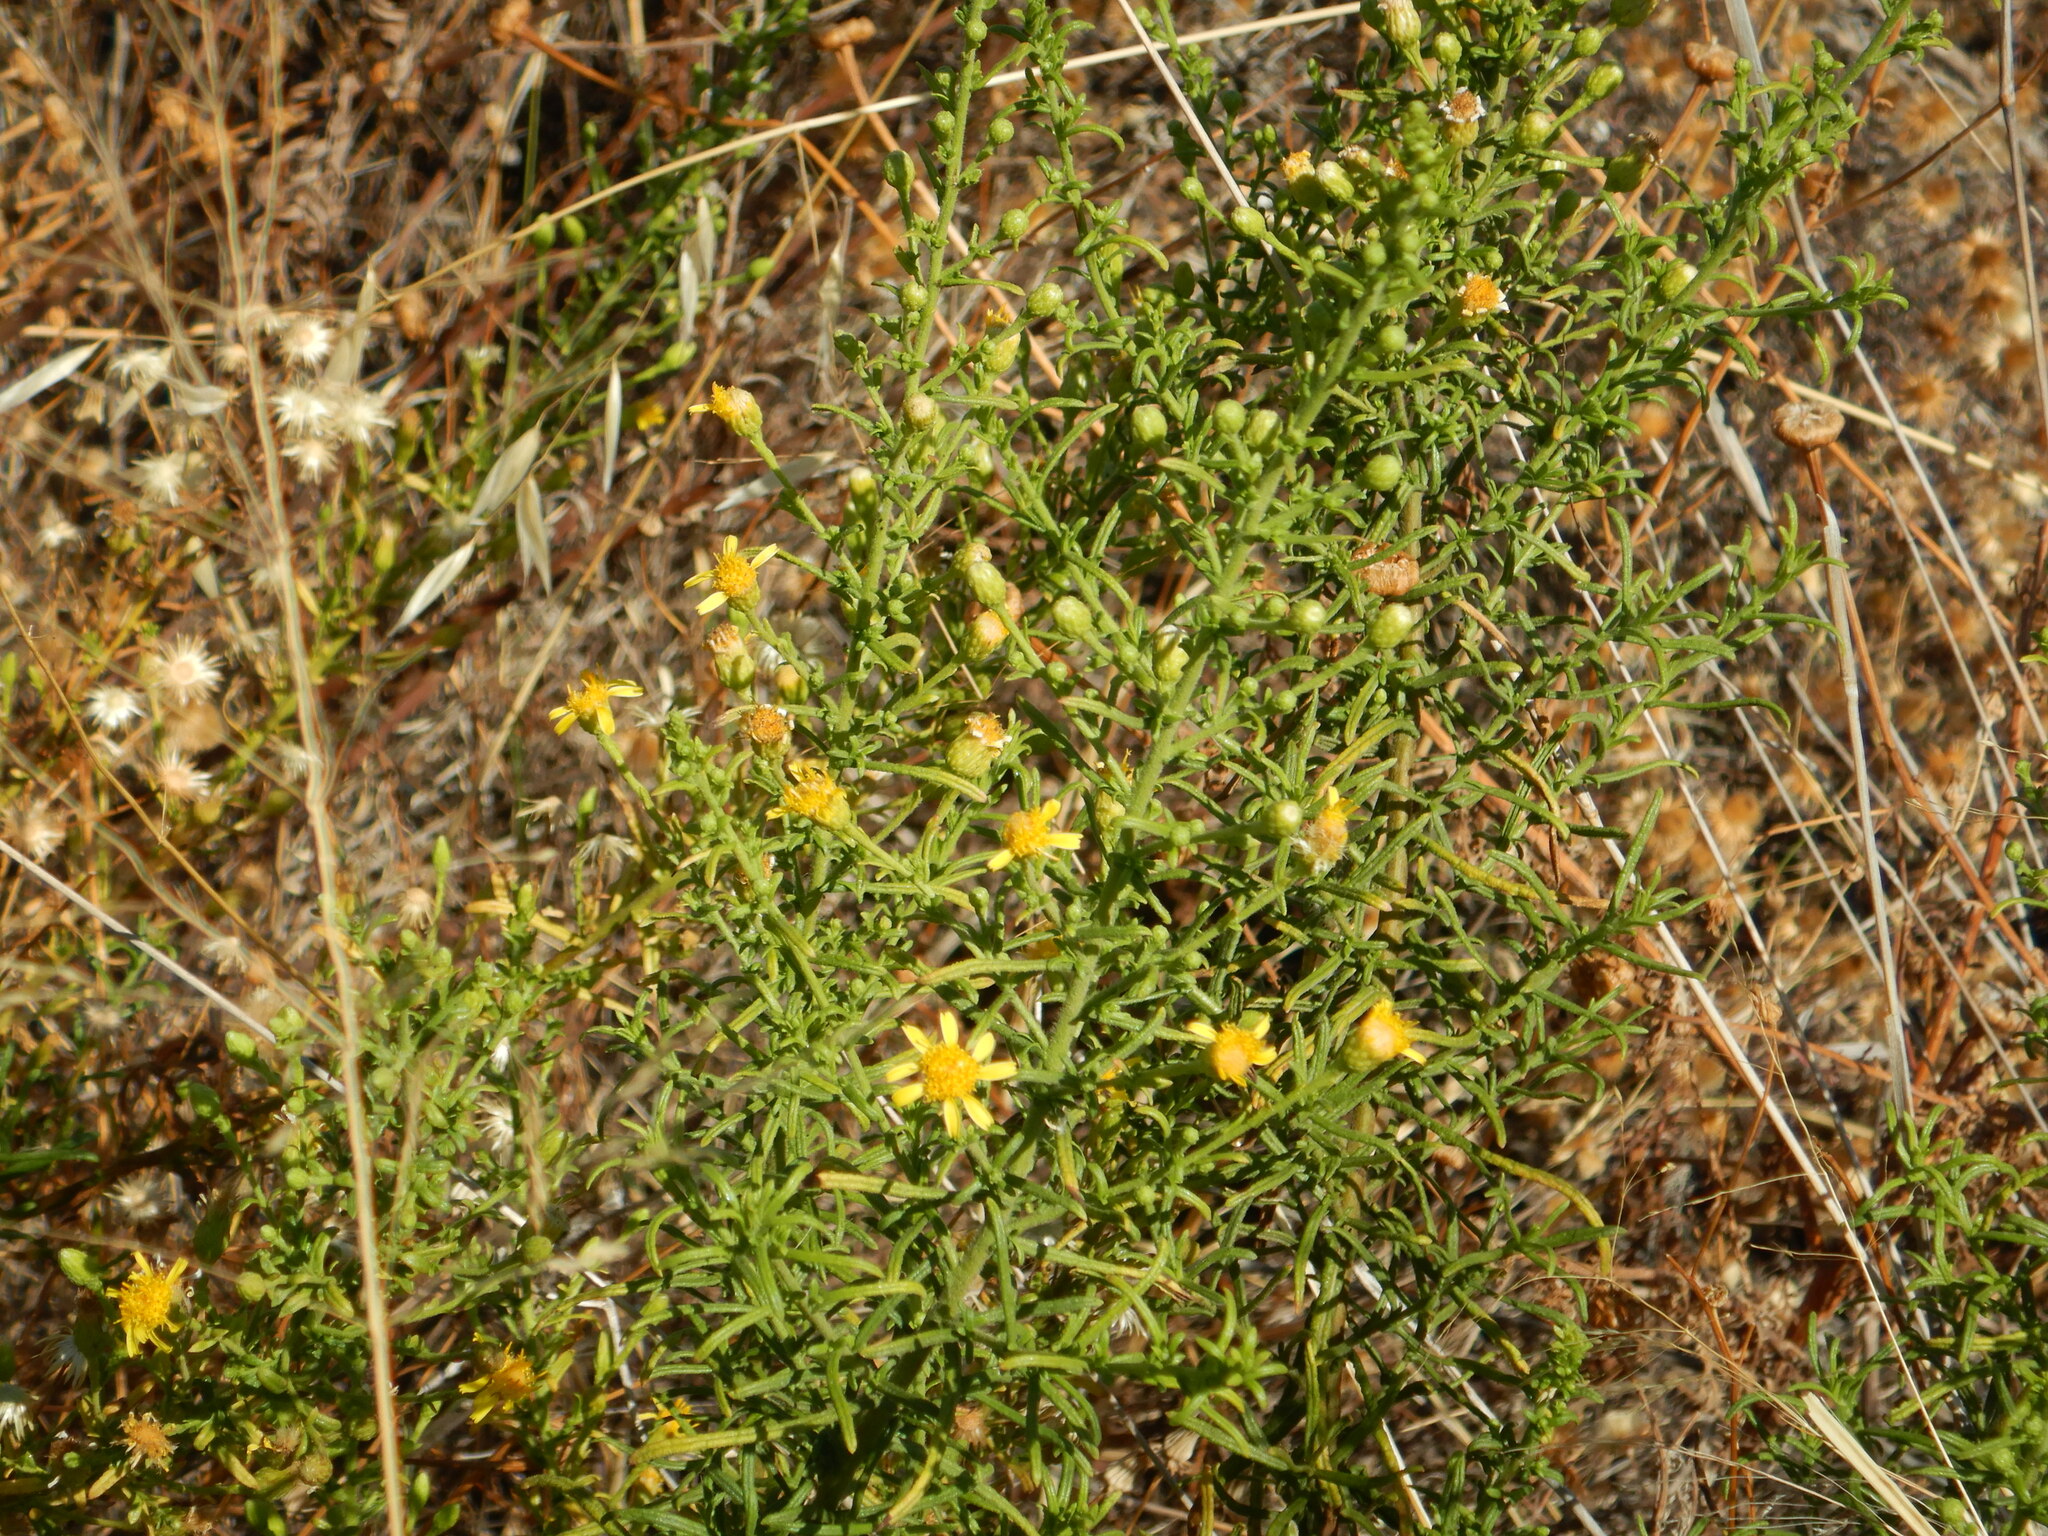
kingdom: Plantae
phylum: Tracheophyta
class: Magnoliopsida
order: Asterales
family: Asteraceae
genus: Dittrichia
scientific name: Dittrichia viscosa
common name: Woody fleabane
